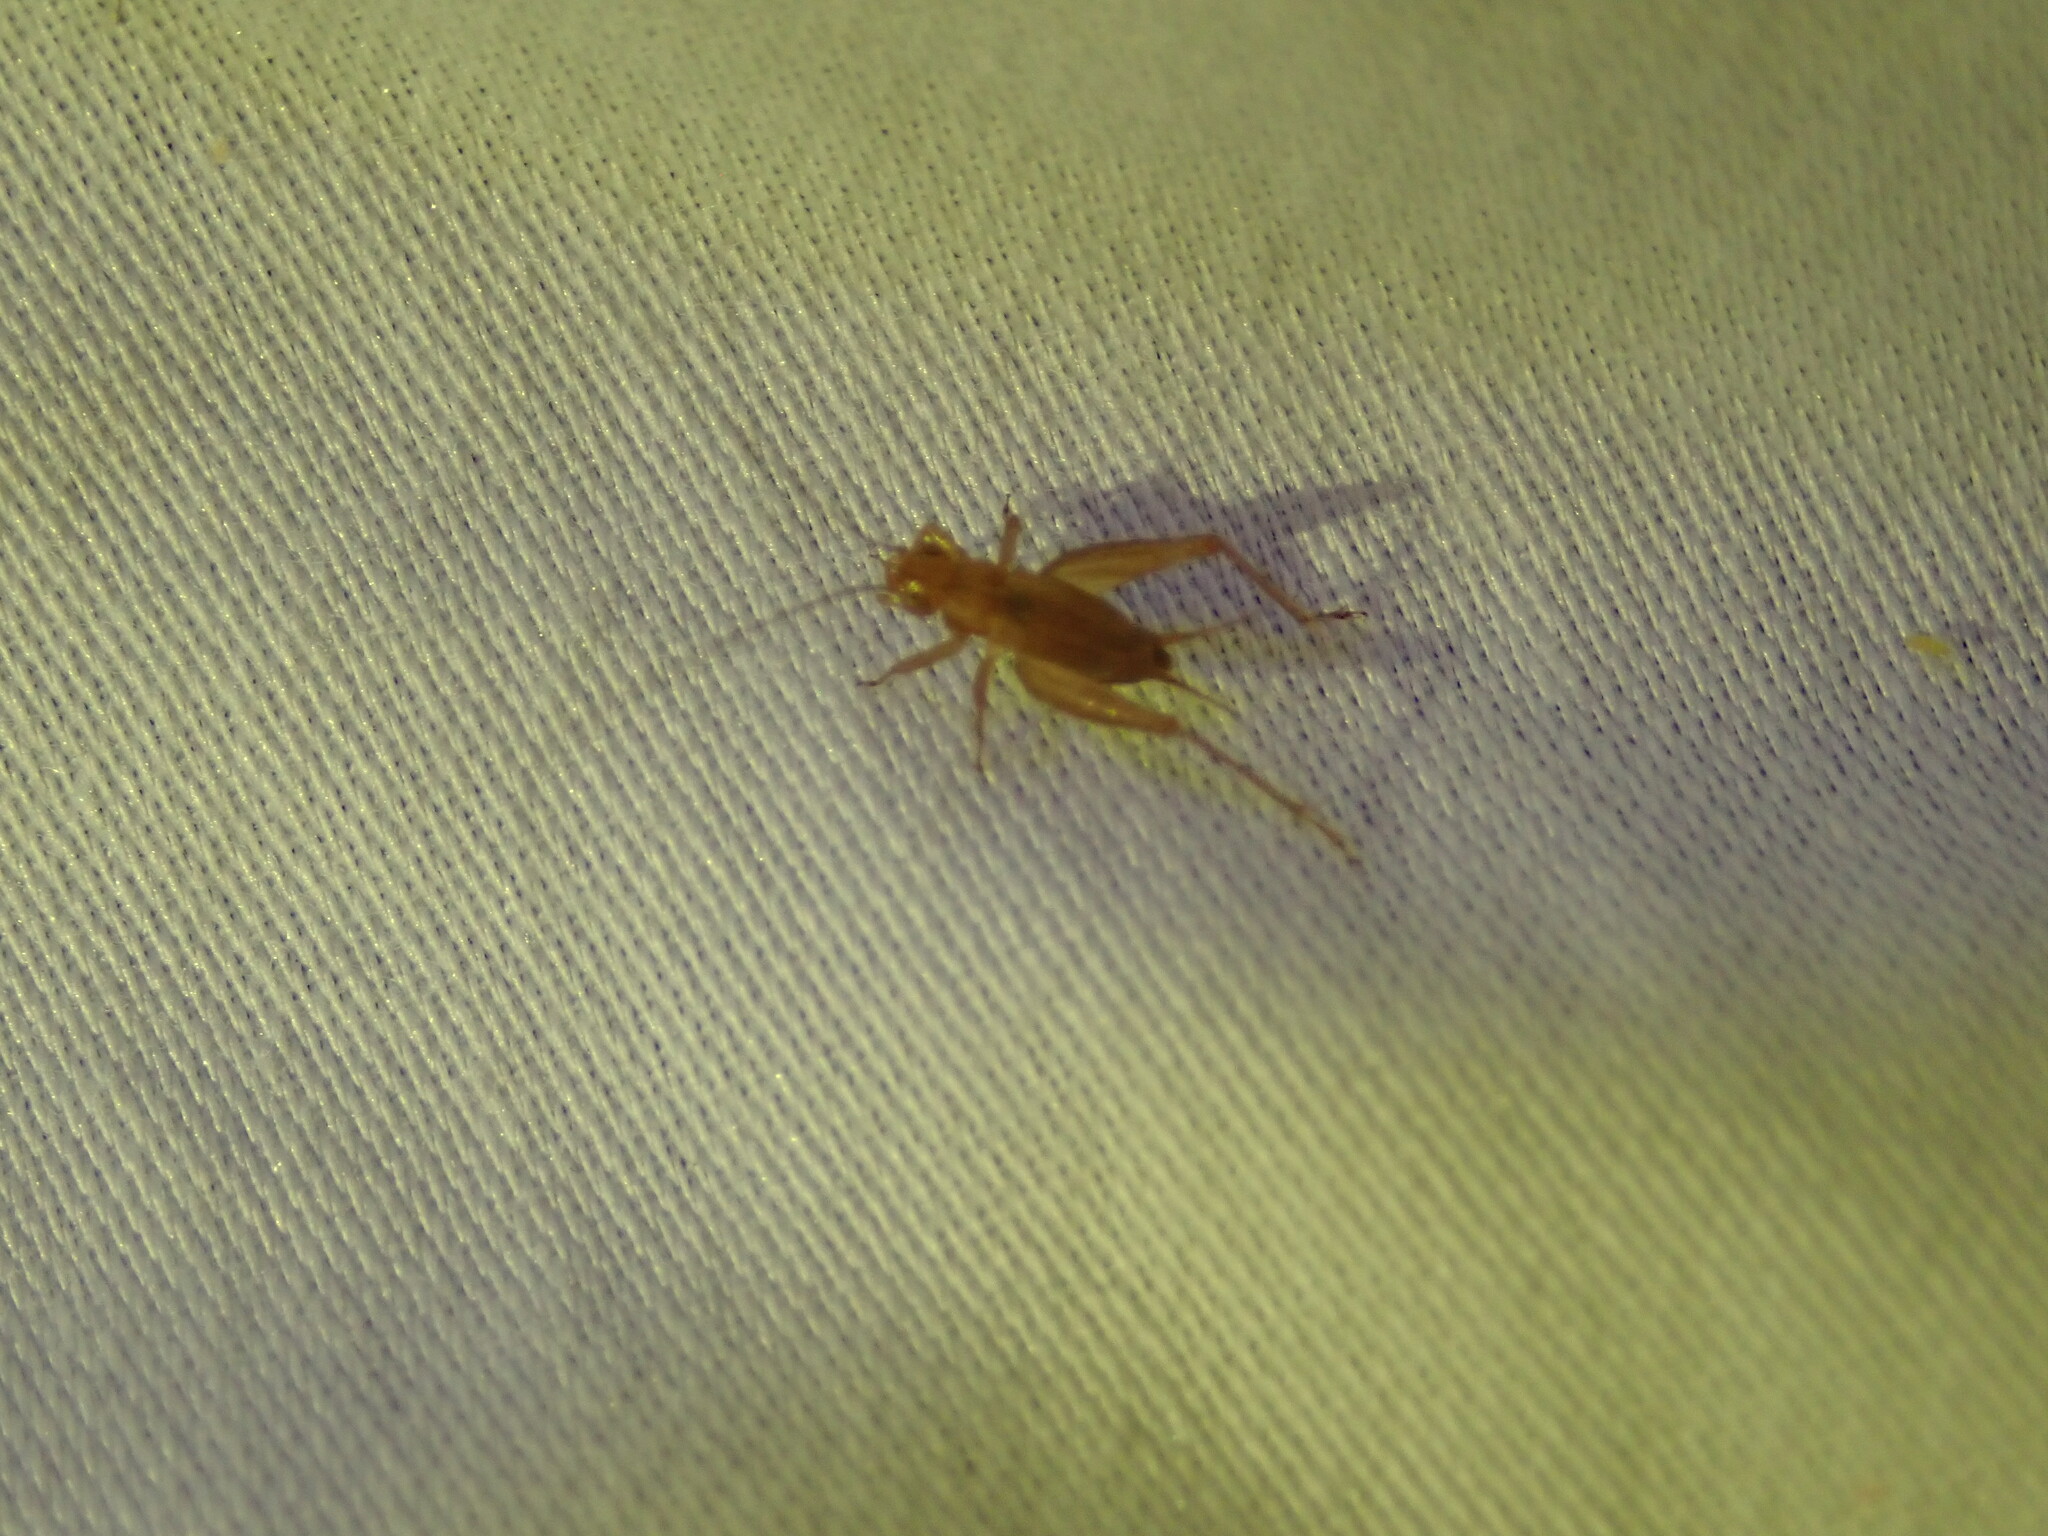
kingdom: Animalia
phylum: Arthropoda
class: Insecta
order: Orthoptera
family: Trigonidiidae
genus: Anaxipha
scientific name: Anaxipha vernalis
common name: Spring trig
